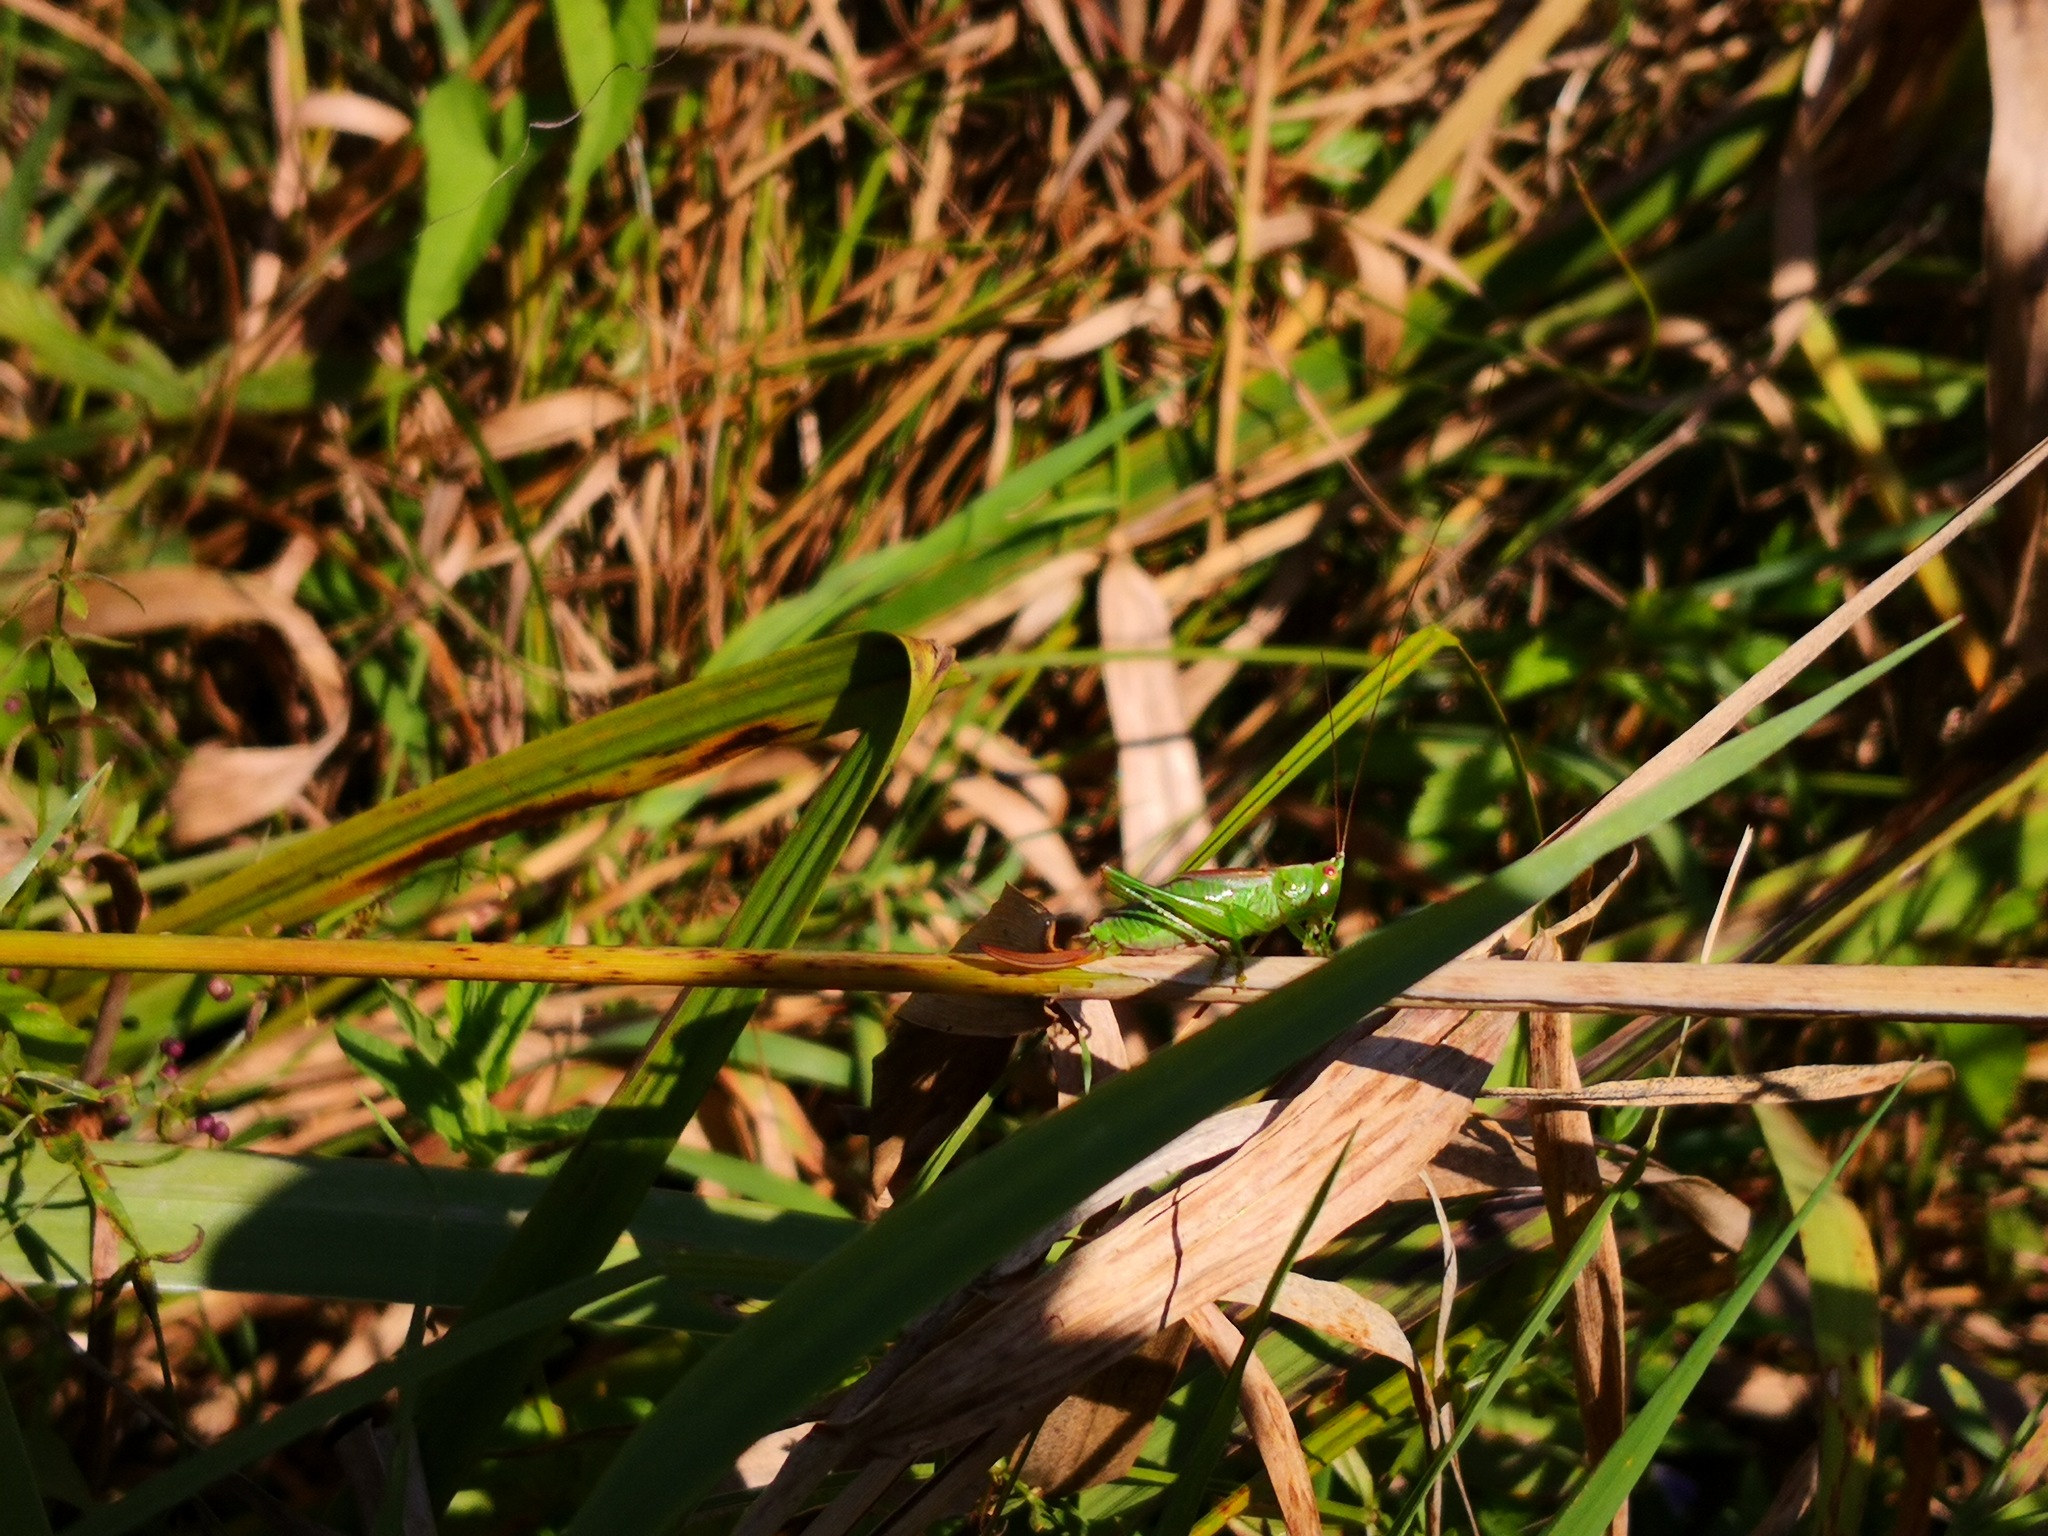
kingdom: Animalia
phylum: Arthropoda
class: Insecta
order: Orthoptera
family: Tettigoniidae
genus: Conocephalus
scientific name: Conocephalus dorsalis
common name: Short-winged conehead
